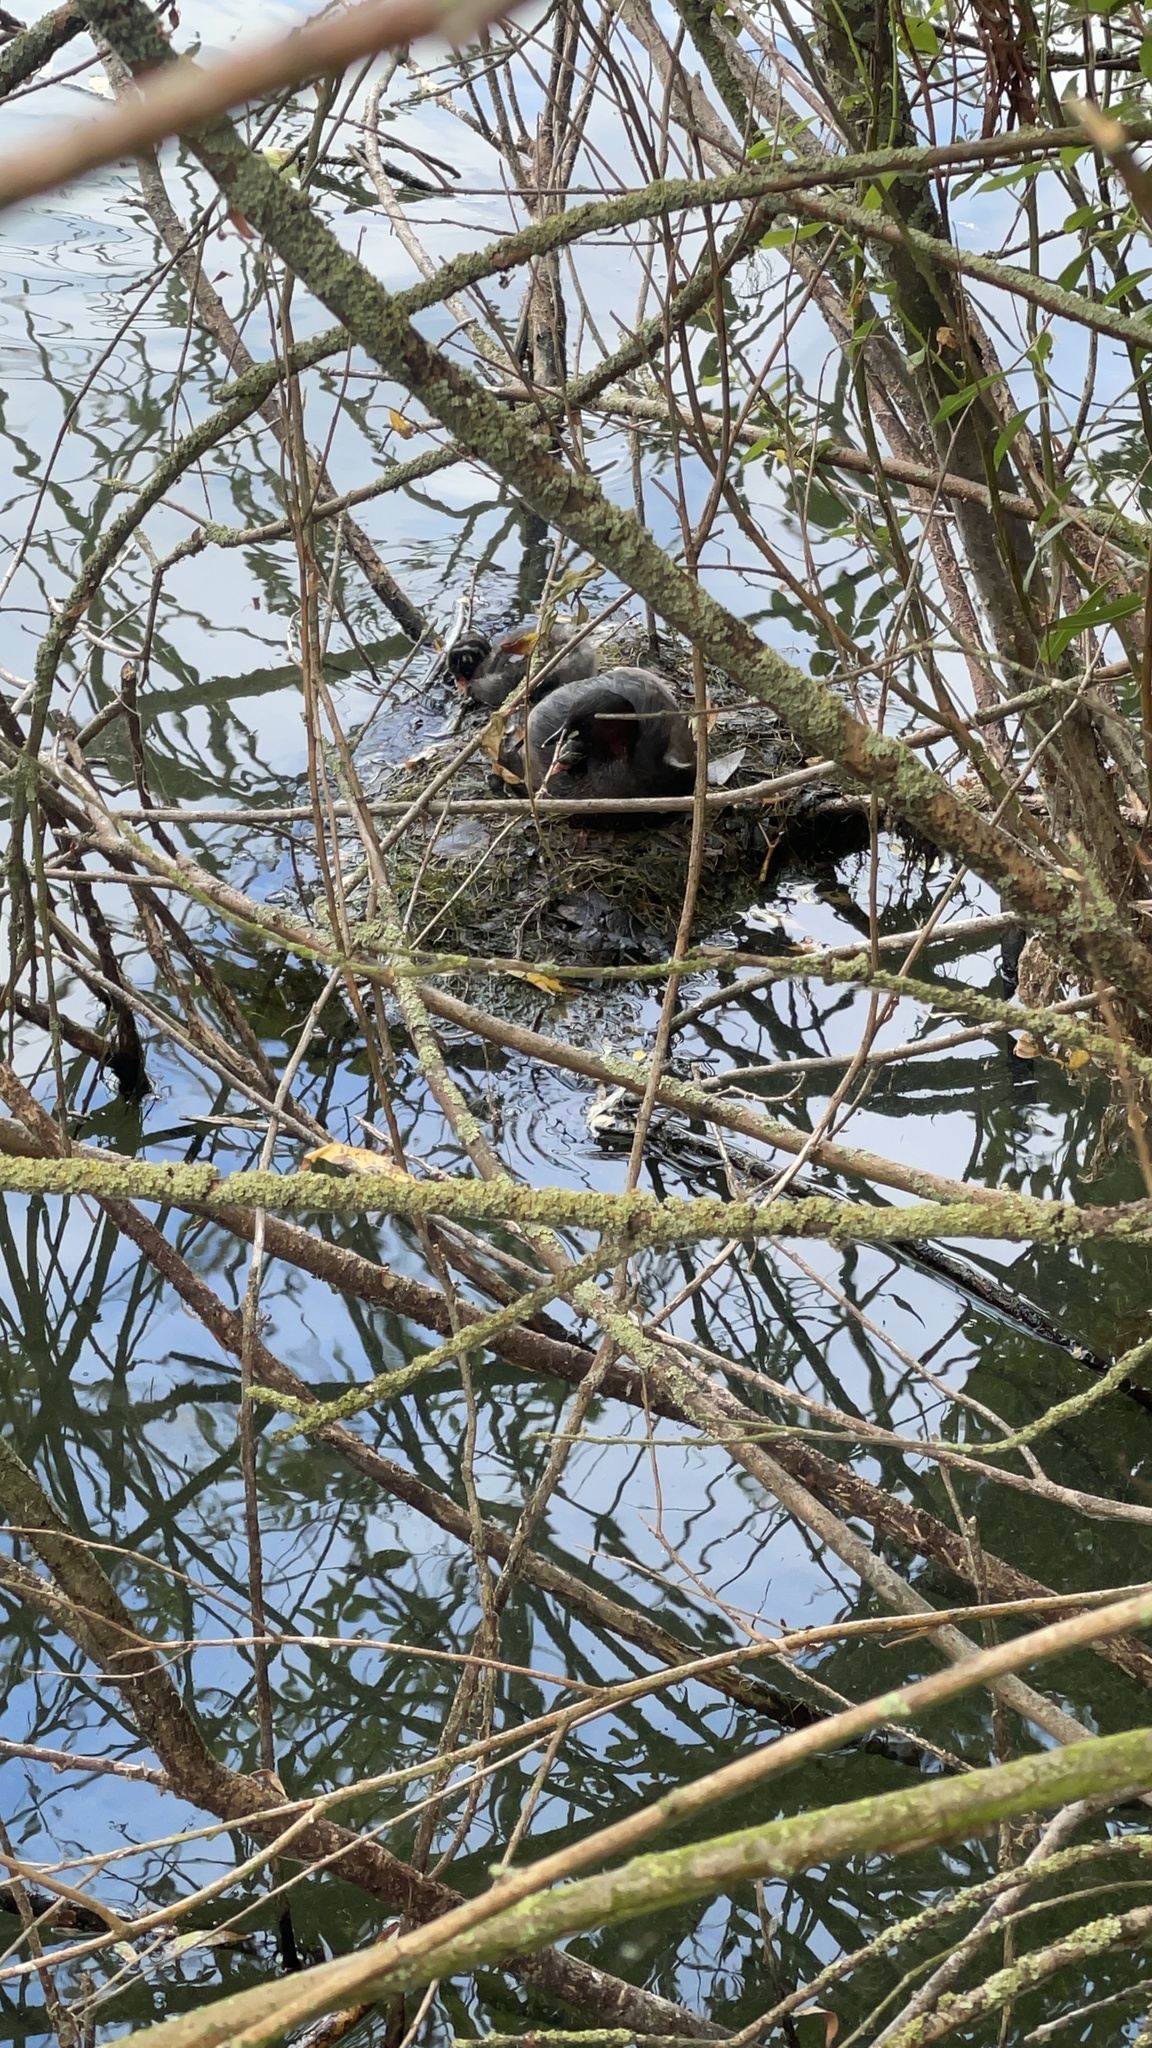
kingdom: Animalia
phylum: Chordata
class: Aves
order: Podicipediformes
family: Podicipedidae
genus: Tachybaptus
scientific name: Tachybaptus ruficollis
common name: Little grebe
